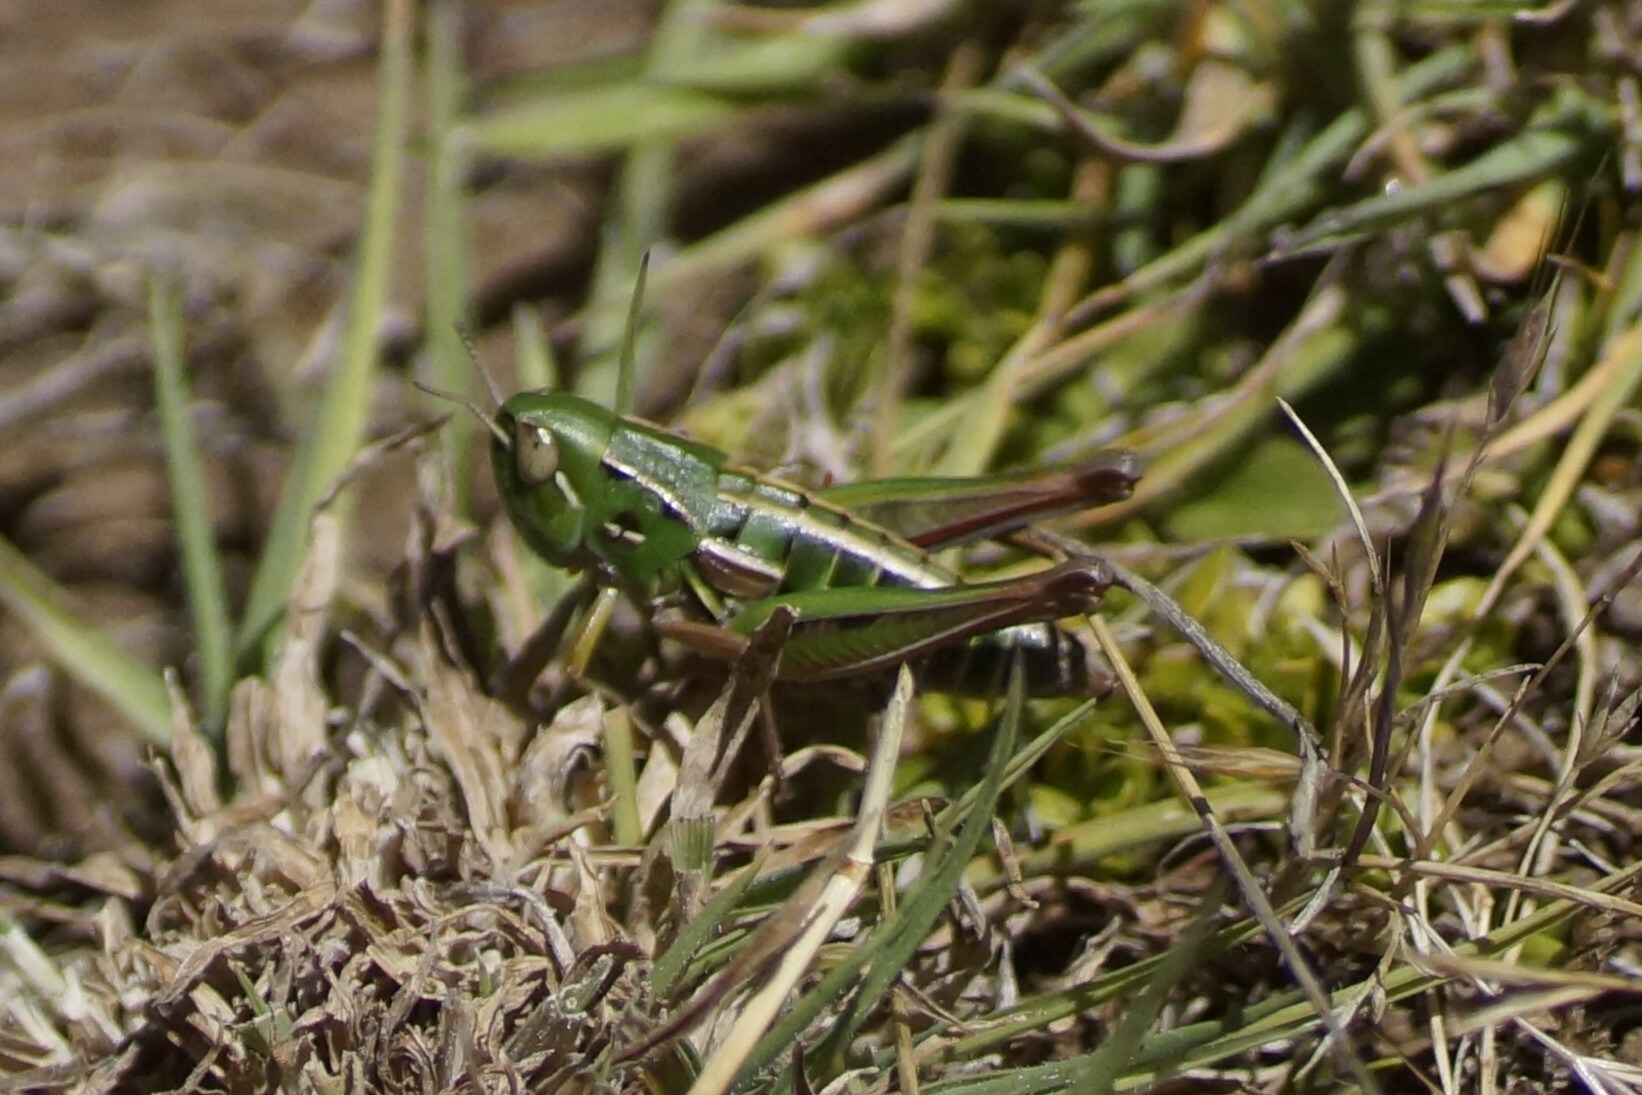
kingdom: Animalia
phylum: Arthropoda
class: Insecta
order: Orthoptera
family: Acrididae
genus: Kosciuscola
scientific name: Kosciuscola tasmanicus
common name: Tasmanian skyhopper
